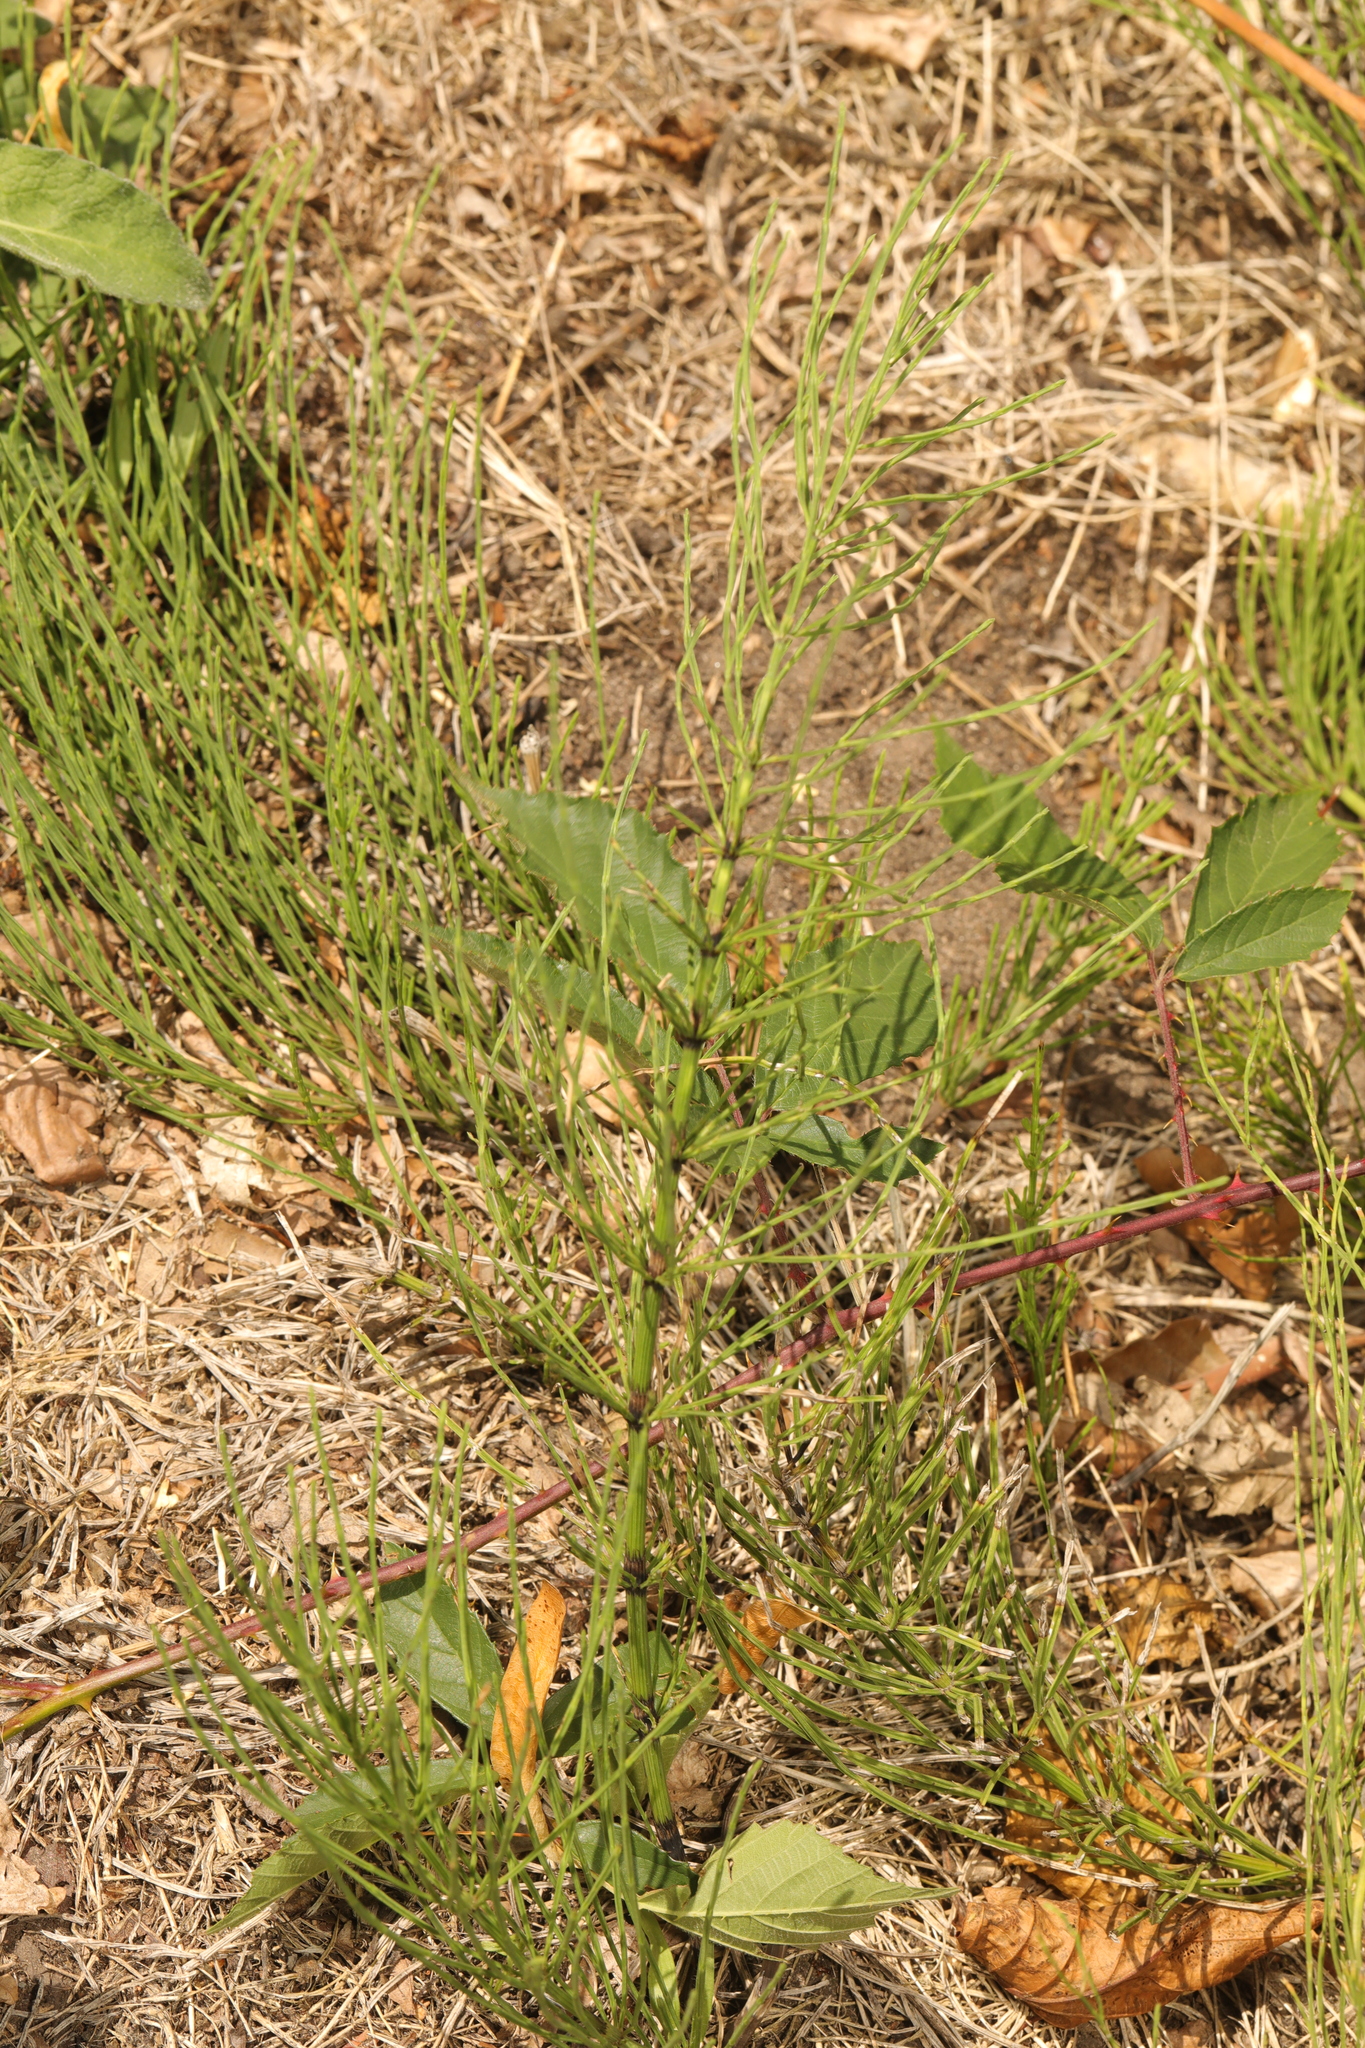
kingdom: Plantae
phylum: Tracheophyta
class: Polypodiopsida
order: Equisetales
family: Equisetaceae
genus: Equisetum
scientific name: Equisetum arvense
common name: Field horsetail
